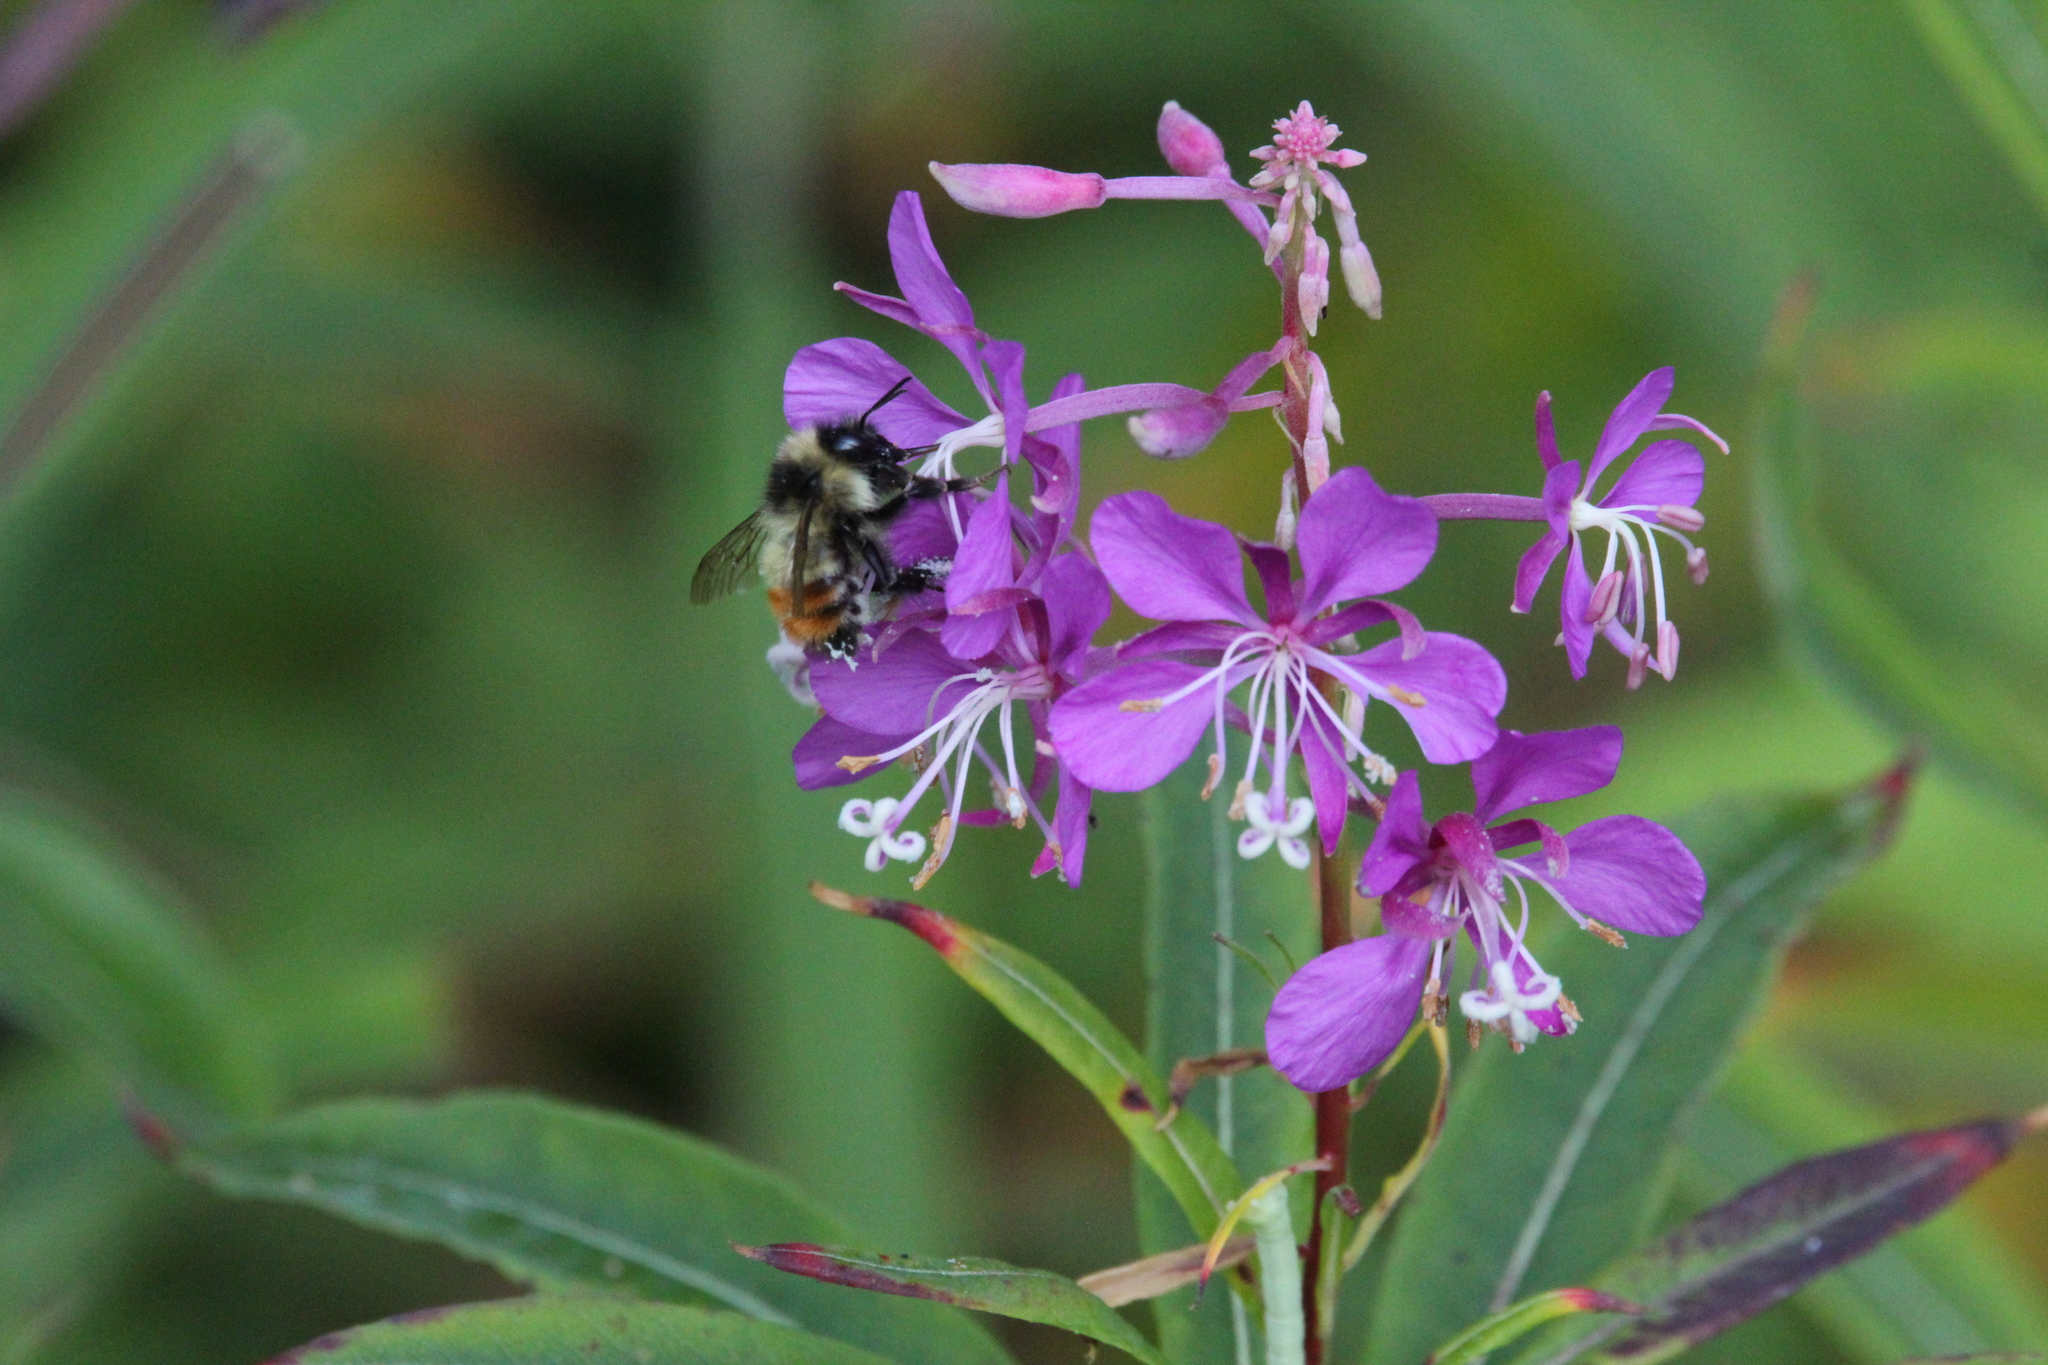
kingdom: Animalia
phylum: Arthropoda
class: Insecta
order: Hymenoptera
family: Apidae
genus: Bombus
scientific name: Bombus flavifrons
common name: Yellow head bumble bee
